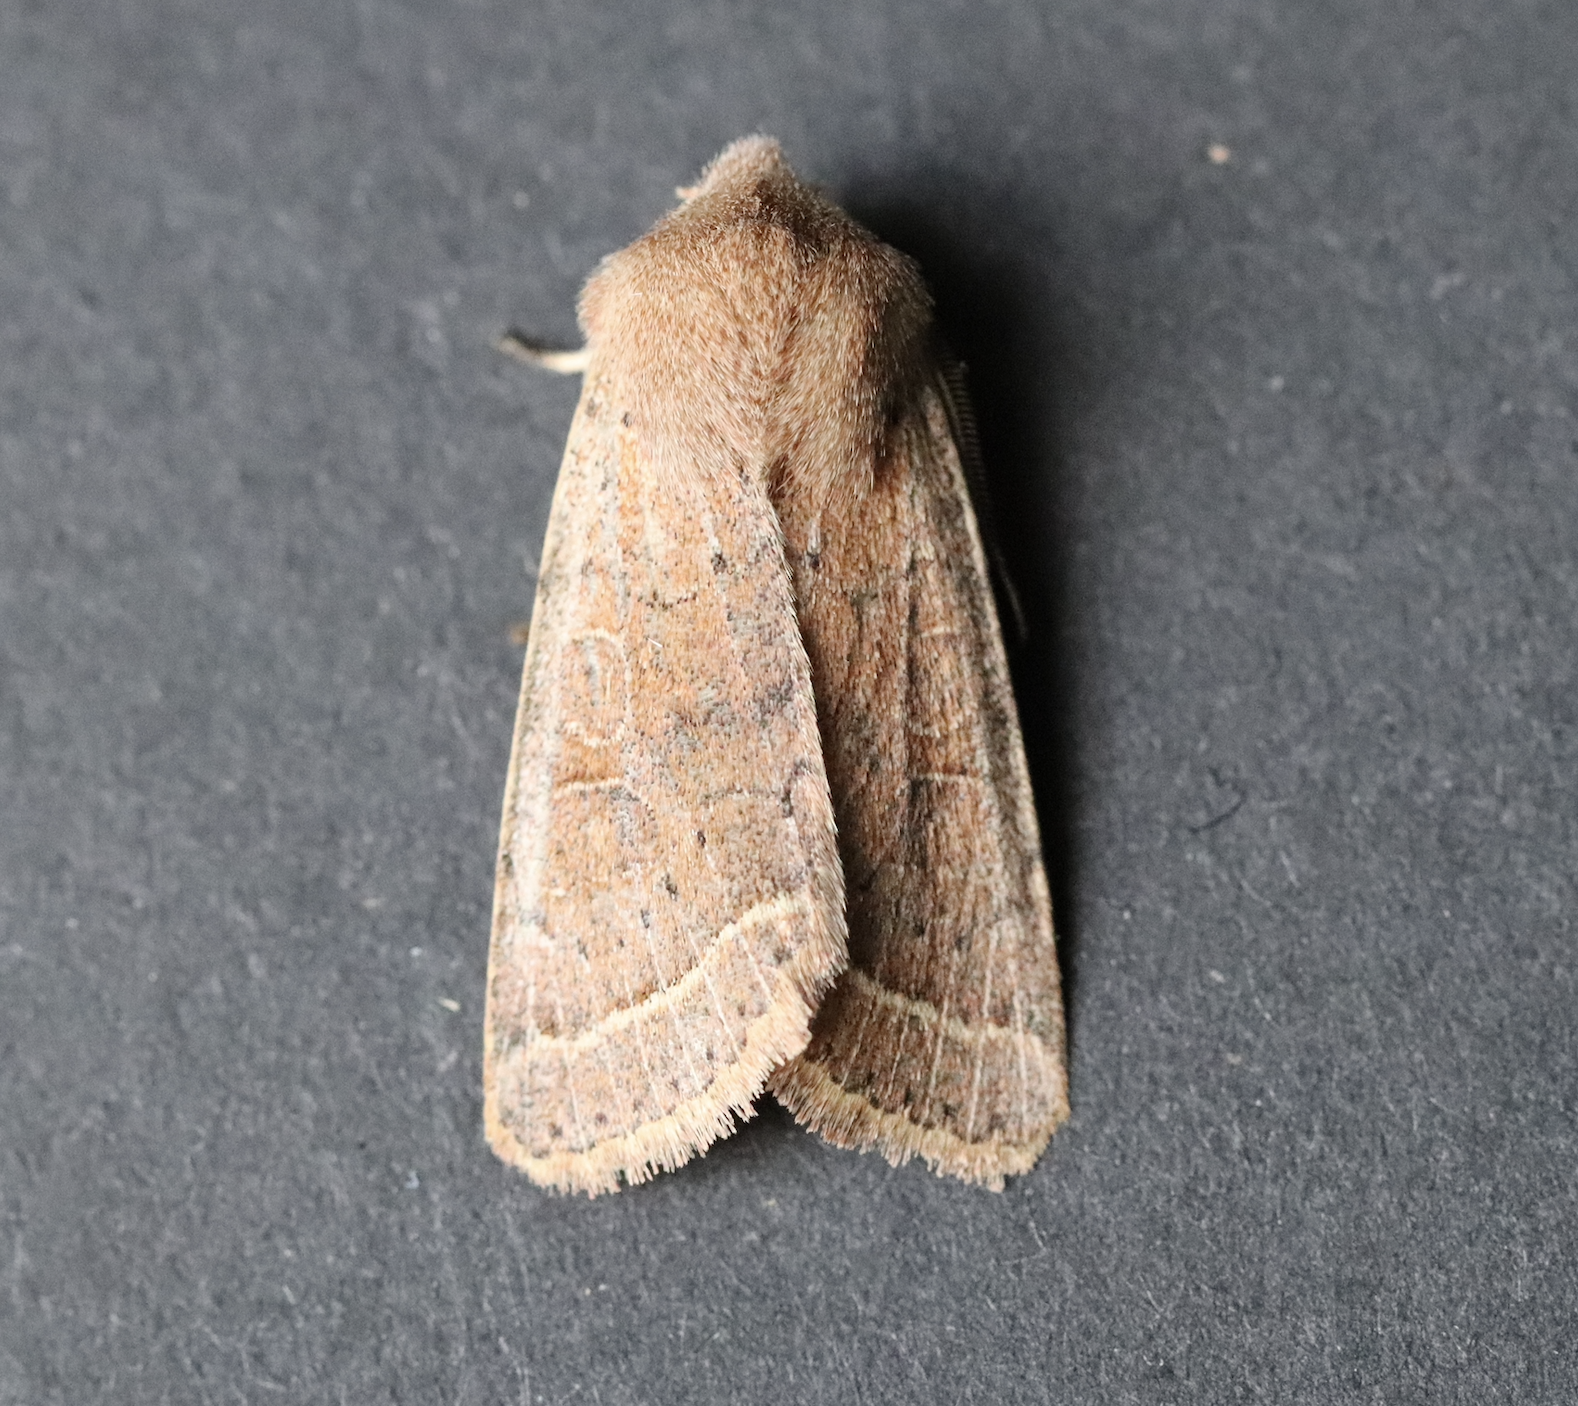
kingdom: Animalia
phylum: Arthropoda
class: Insecta
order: Lepidoptera
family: Noctuidae
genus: Orthosia
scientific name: Orthosia cerasi
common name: Common quaker
